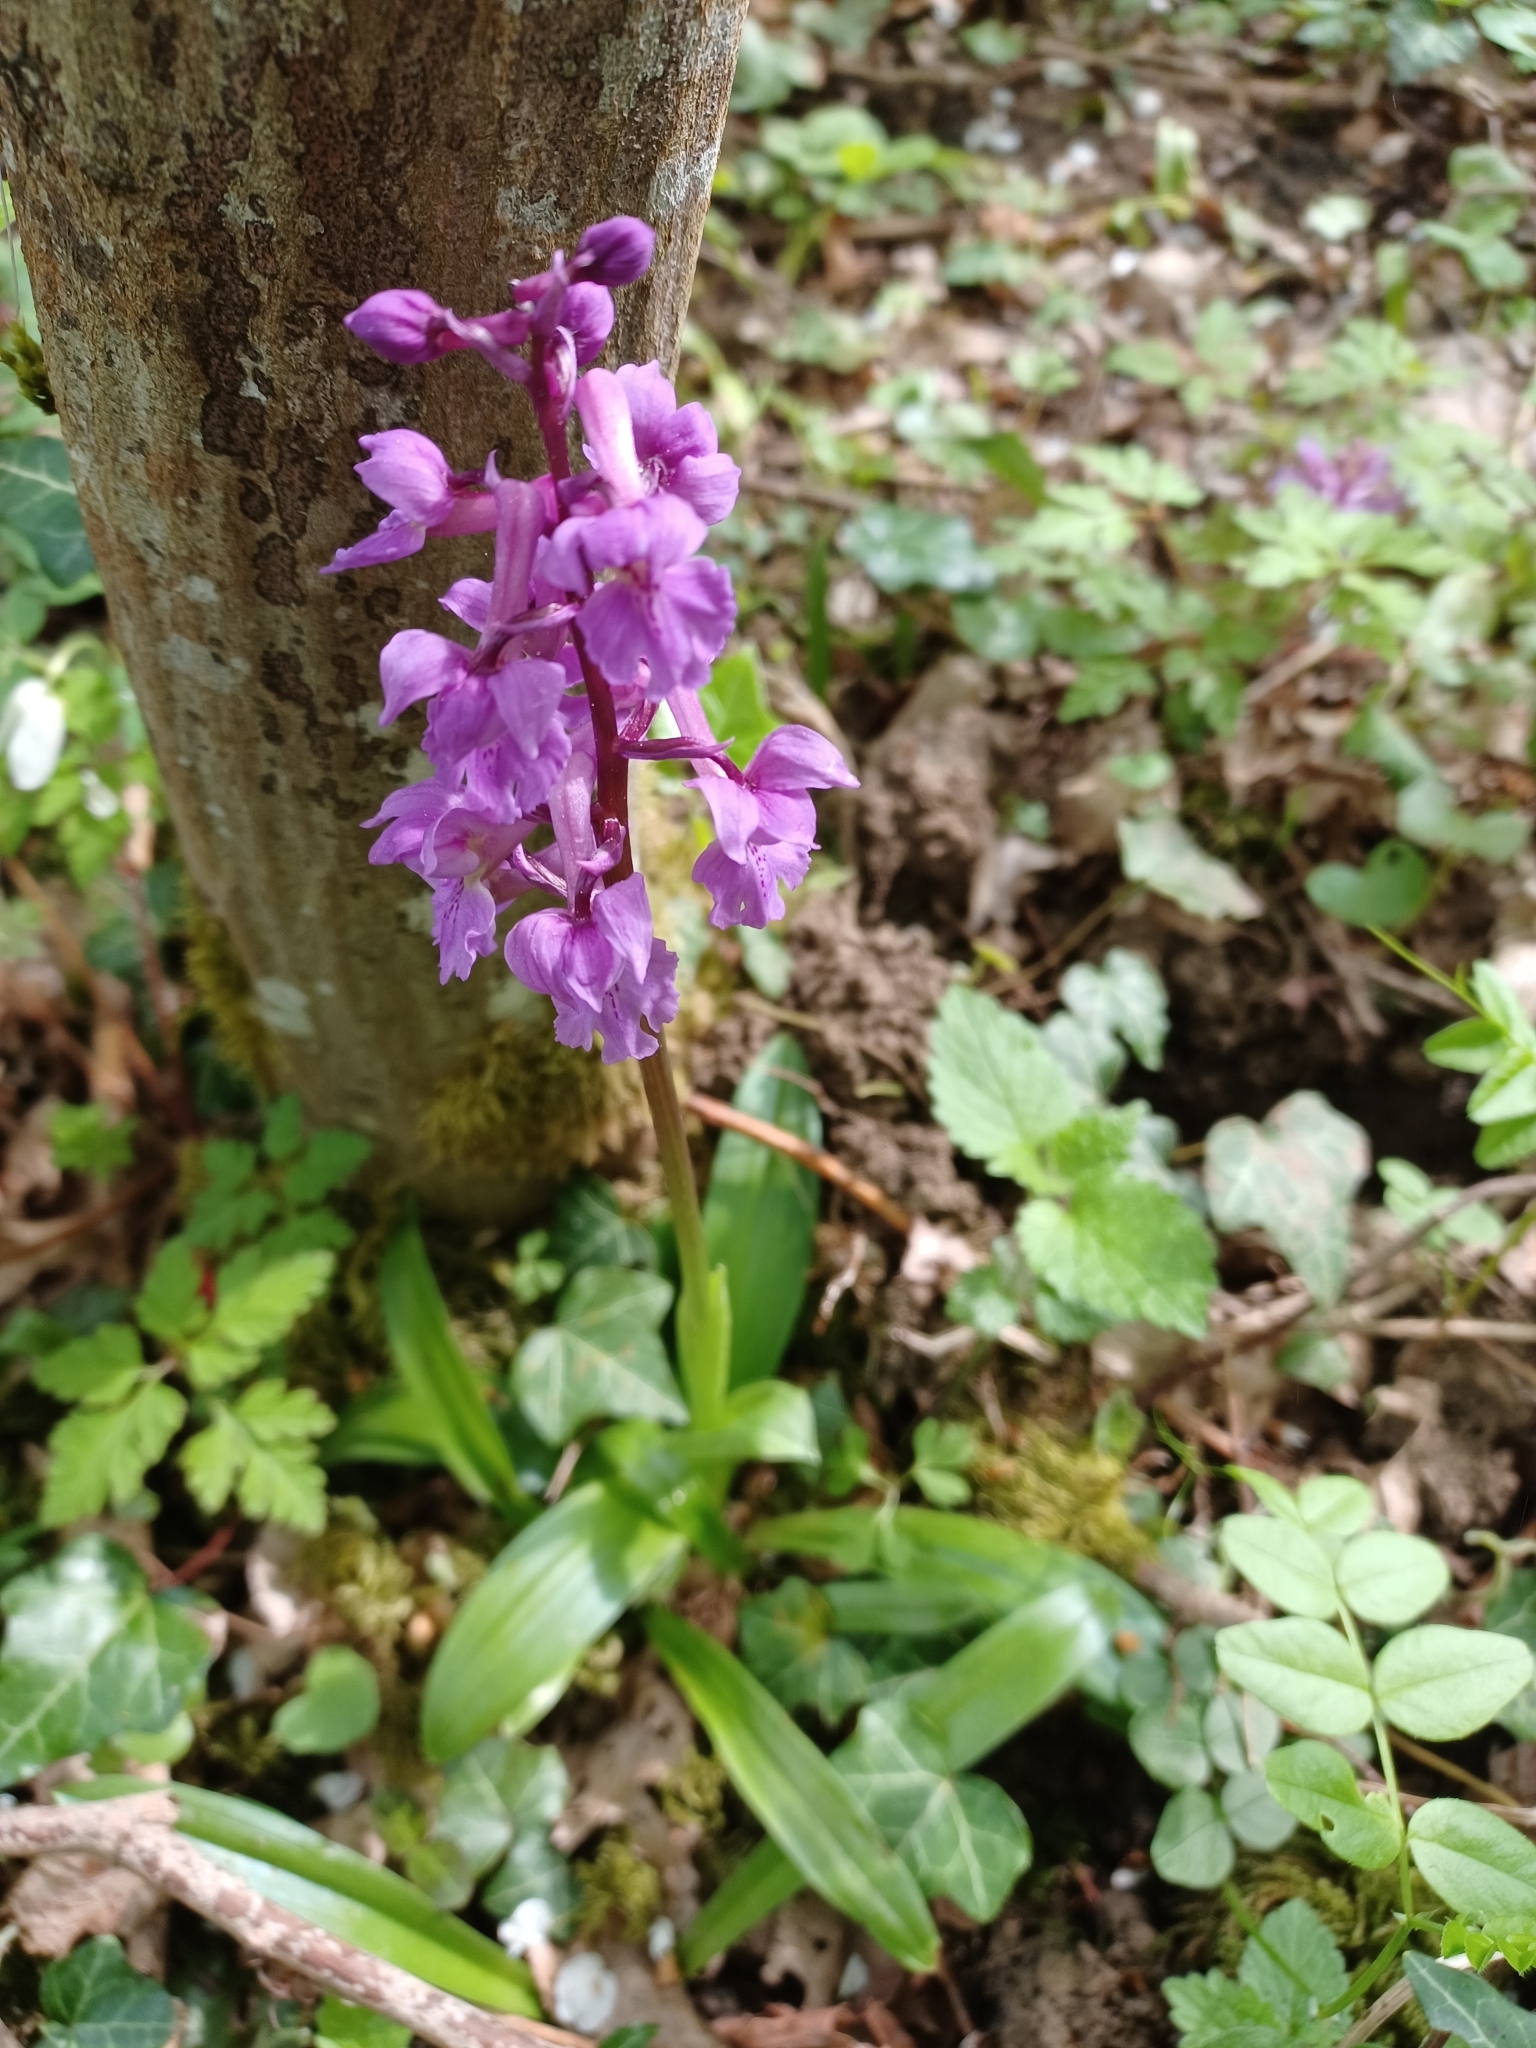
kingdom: Plantae
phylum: Tracheophyta
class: Liliopsida
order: Asparagales
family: Orchidaceae
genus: Orchis
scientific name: Orchis mascula
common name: Early-purple orchid
